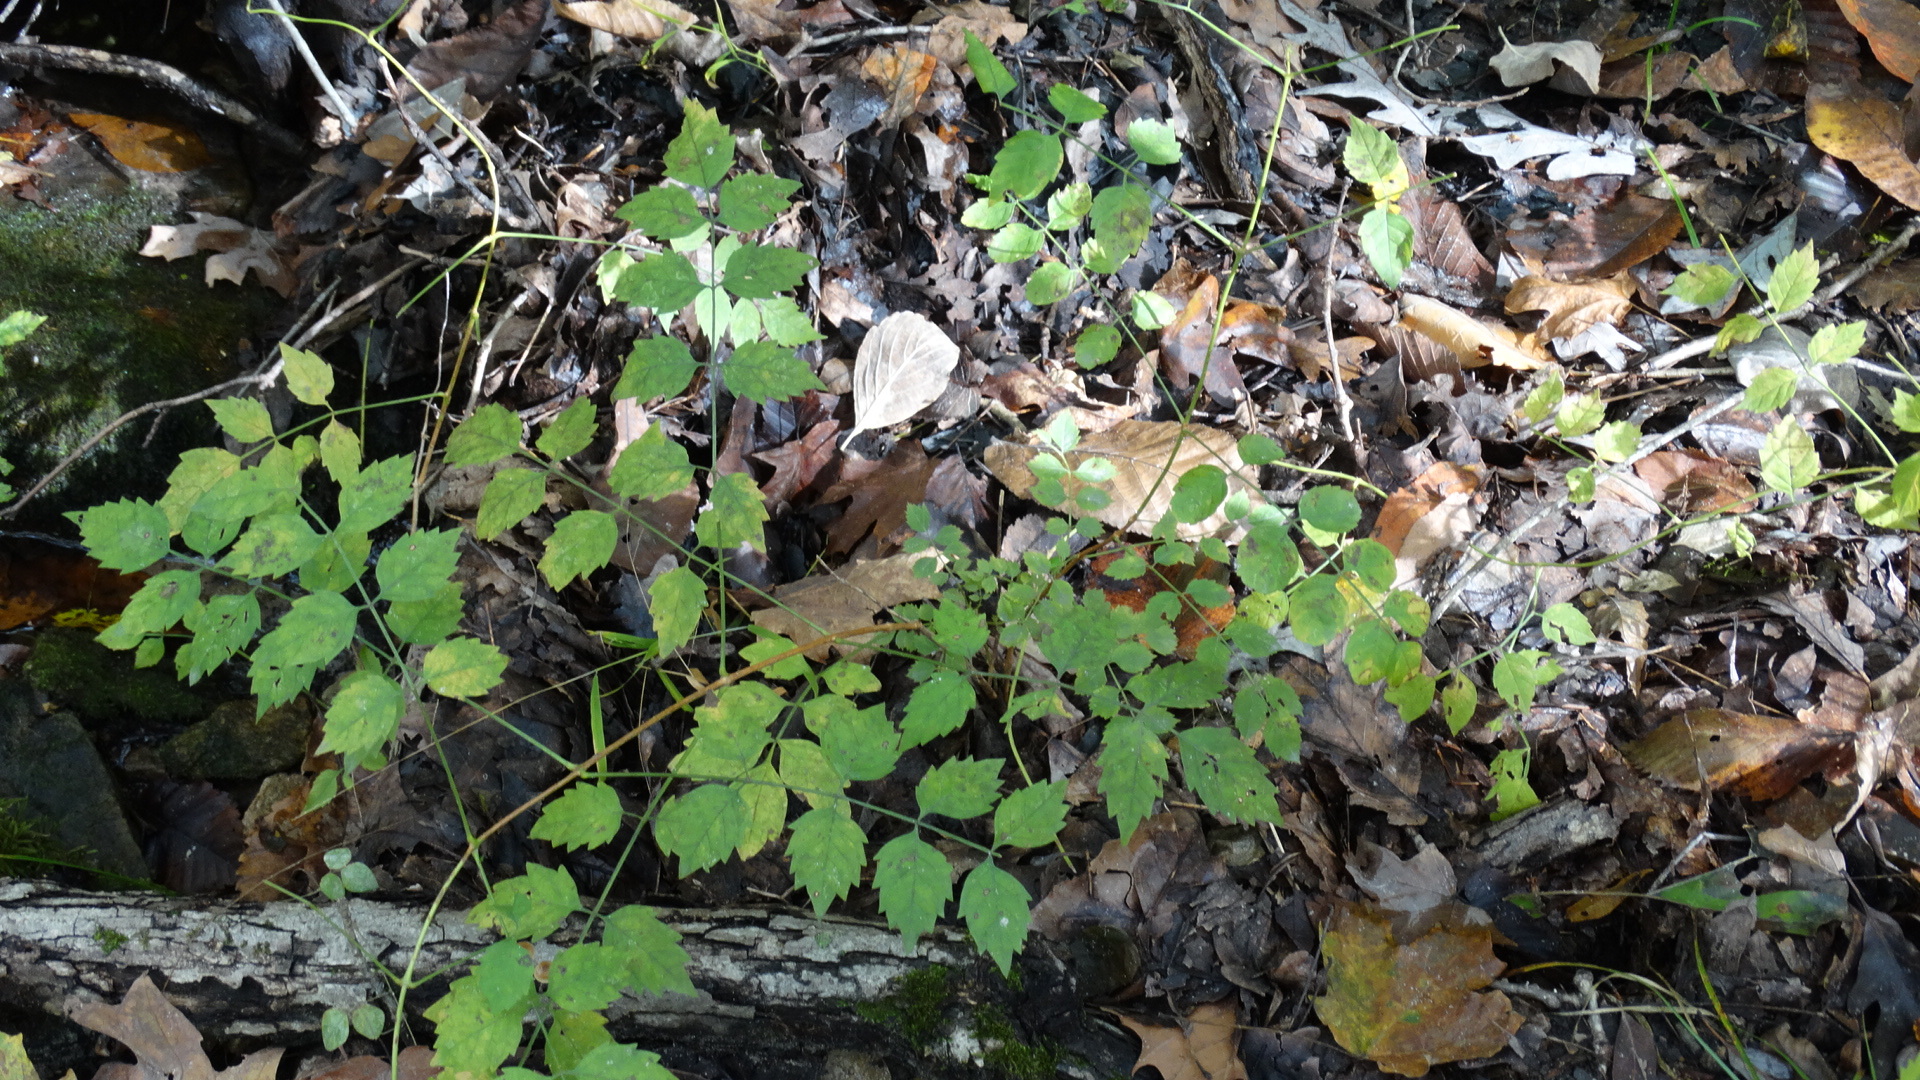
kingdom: Plantae
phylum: Tracheophyta
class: Magnoliopsida
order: Lamiales
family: Bignoniaceae
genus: Campsis
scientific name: Campsis radicans
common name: Trumpet-creeper
